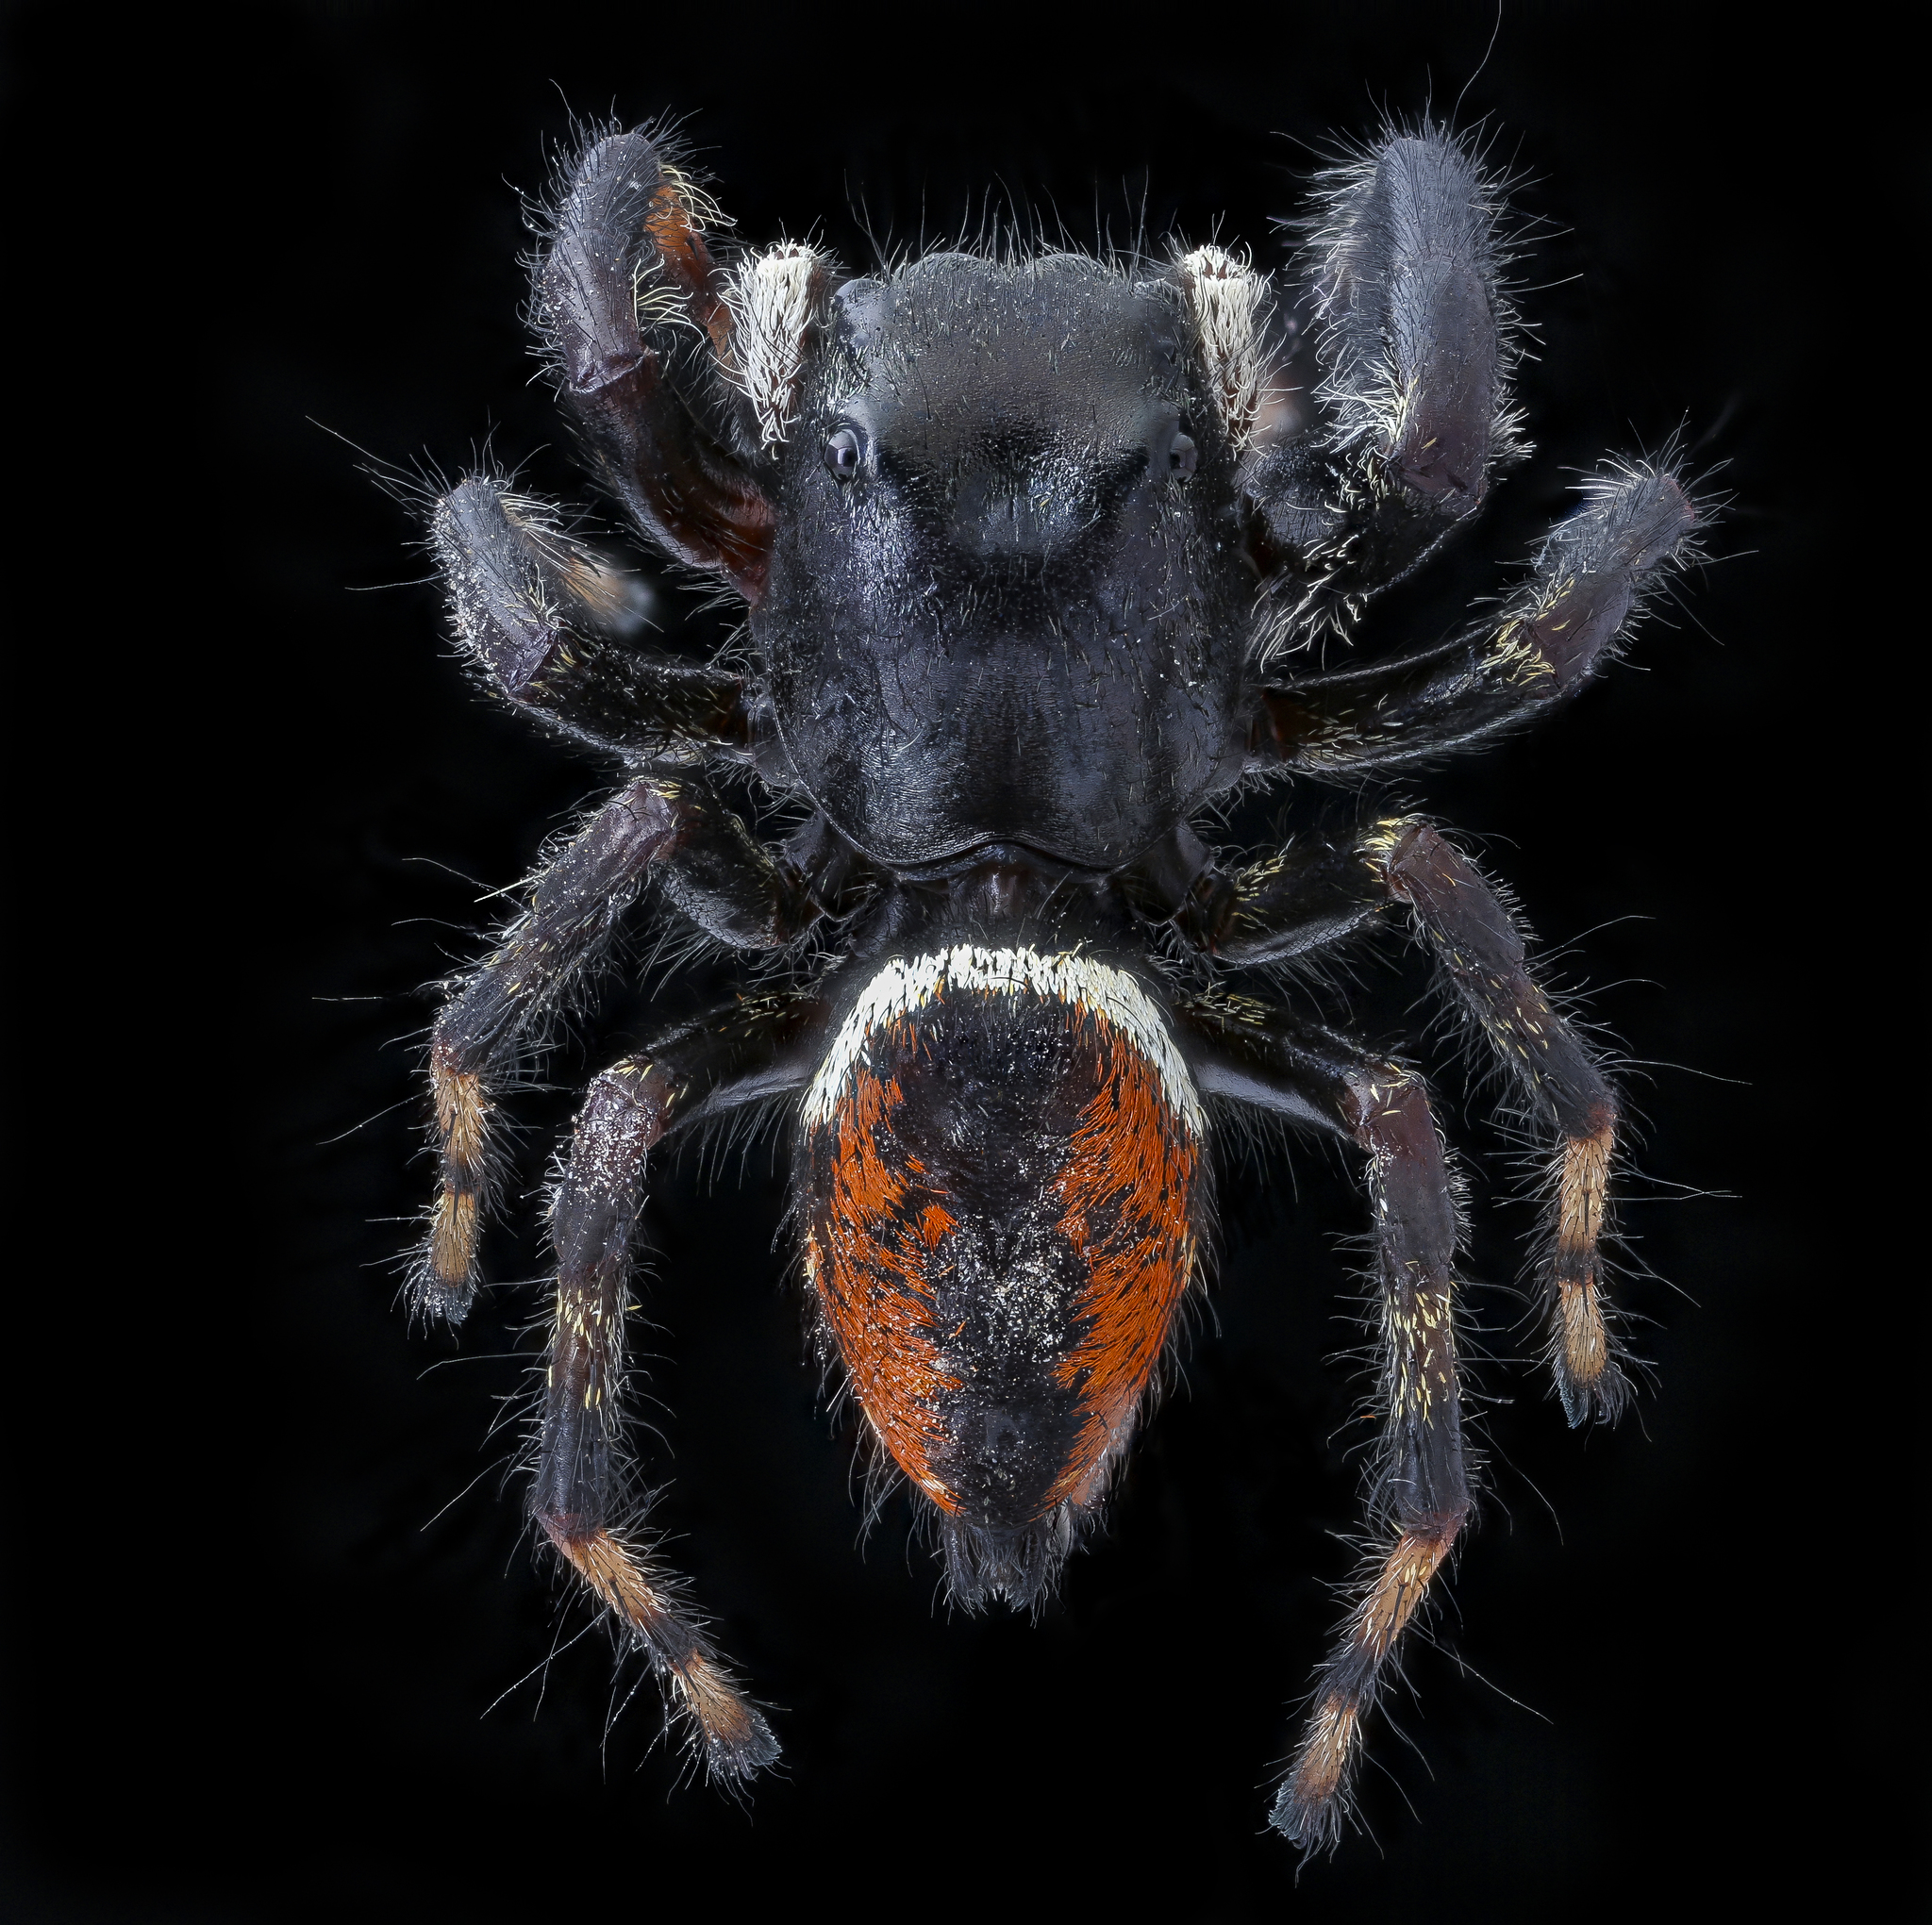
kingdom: Animalia
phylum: Arthropoda
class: Arachnida
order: Araneae
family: Salticidae
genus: Phidippus
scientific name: Phidippus clarus
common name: Brilliant jumping spider
